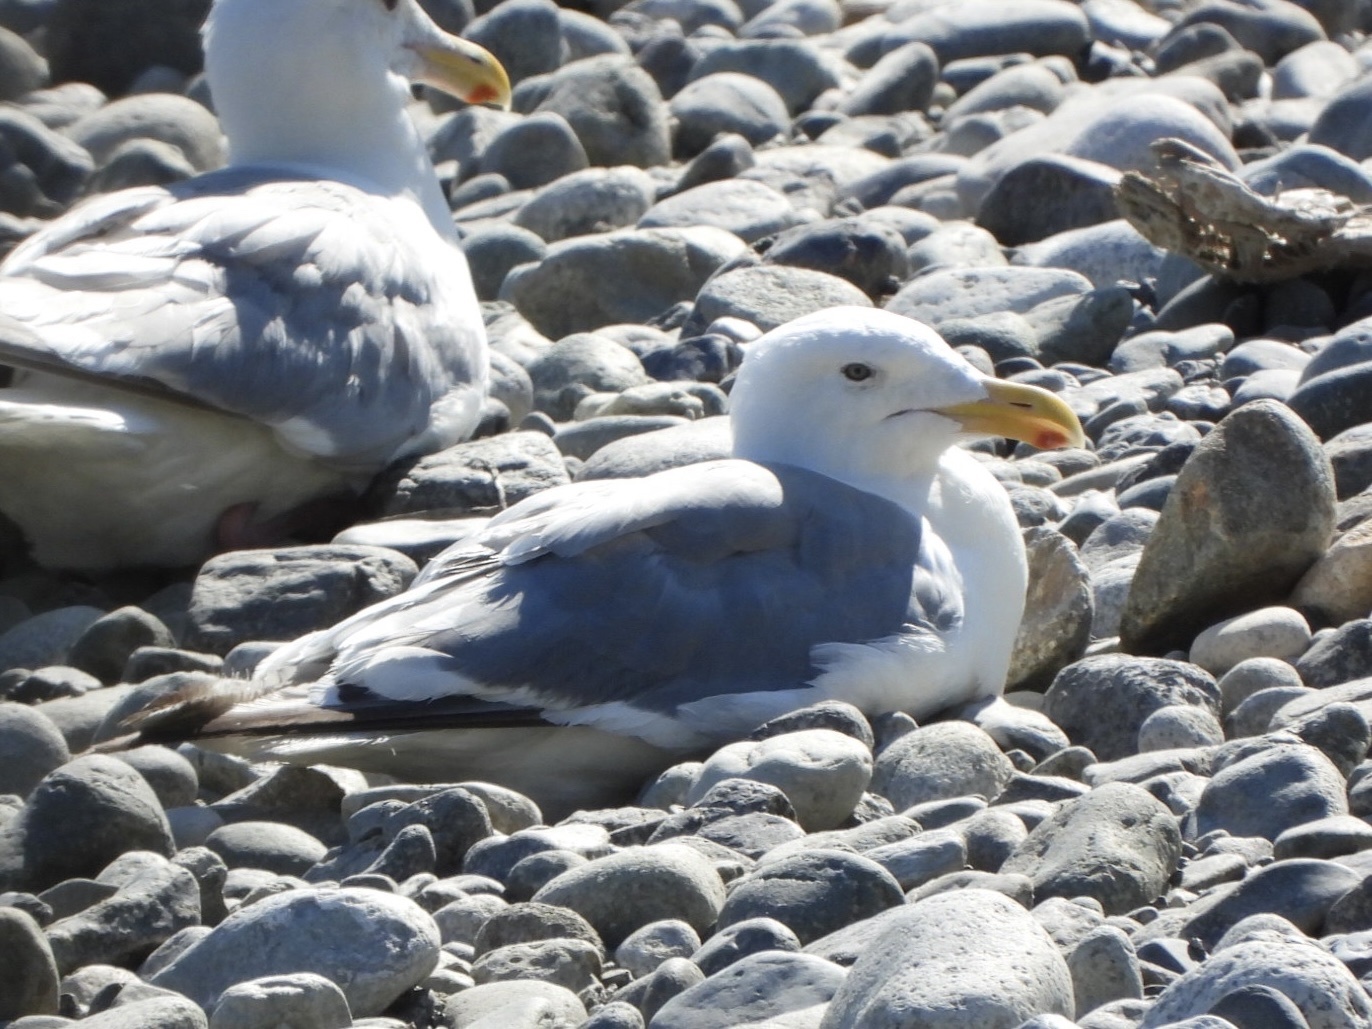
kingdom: Animalia
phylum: Chordata
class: Aves
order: Charadriiformes
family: Laridae
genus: Larus
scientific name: Larus
